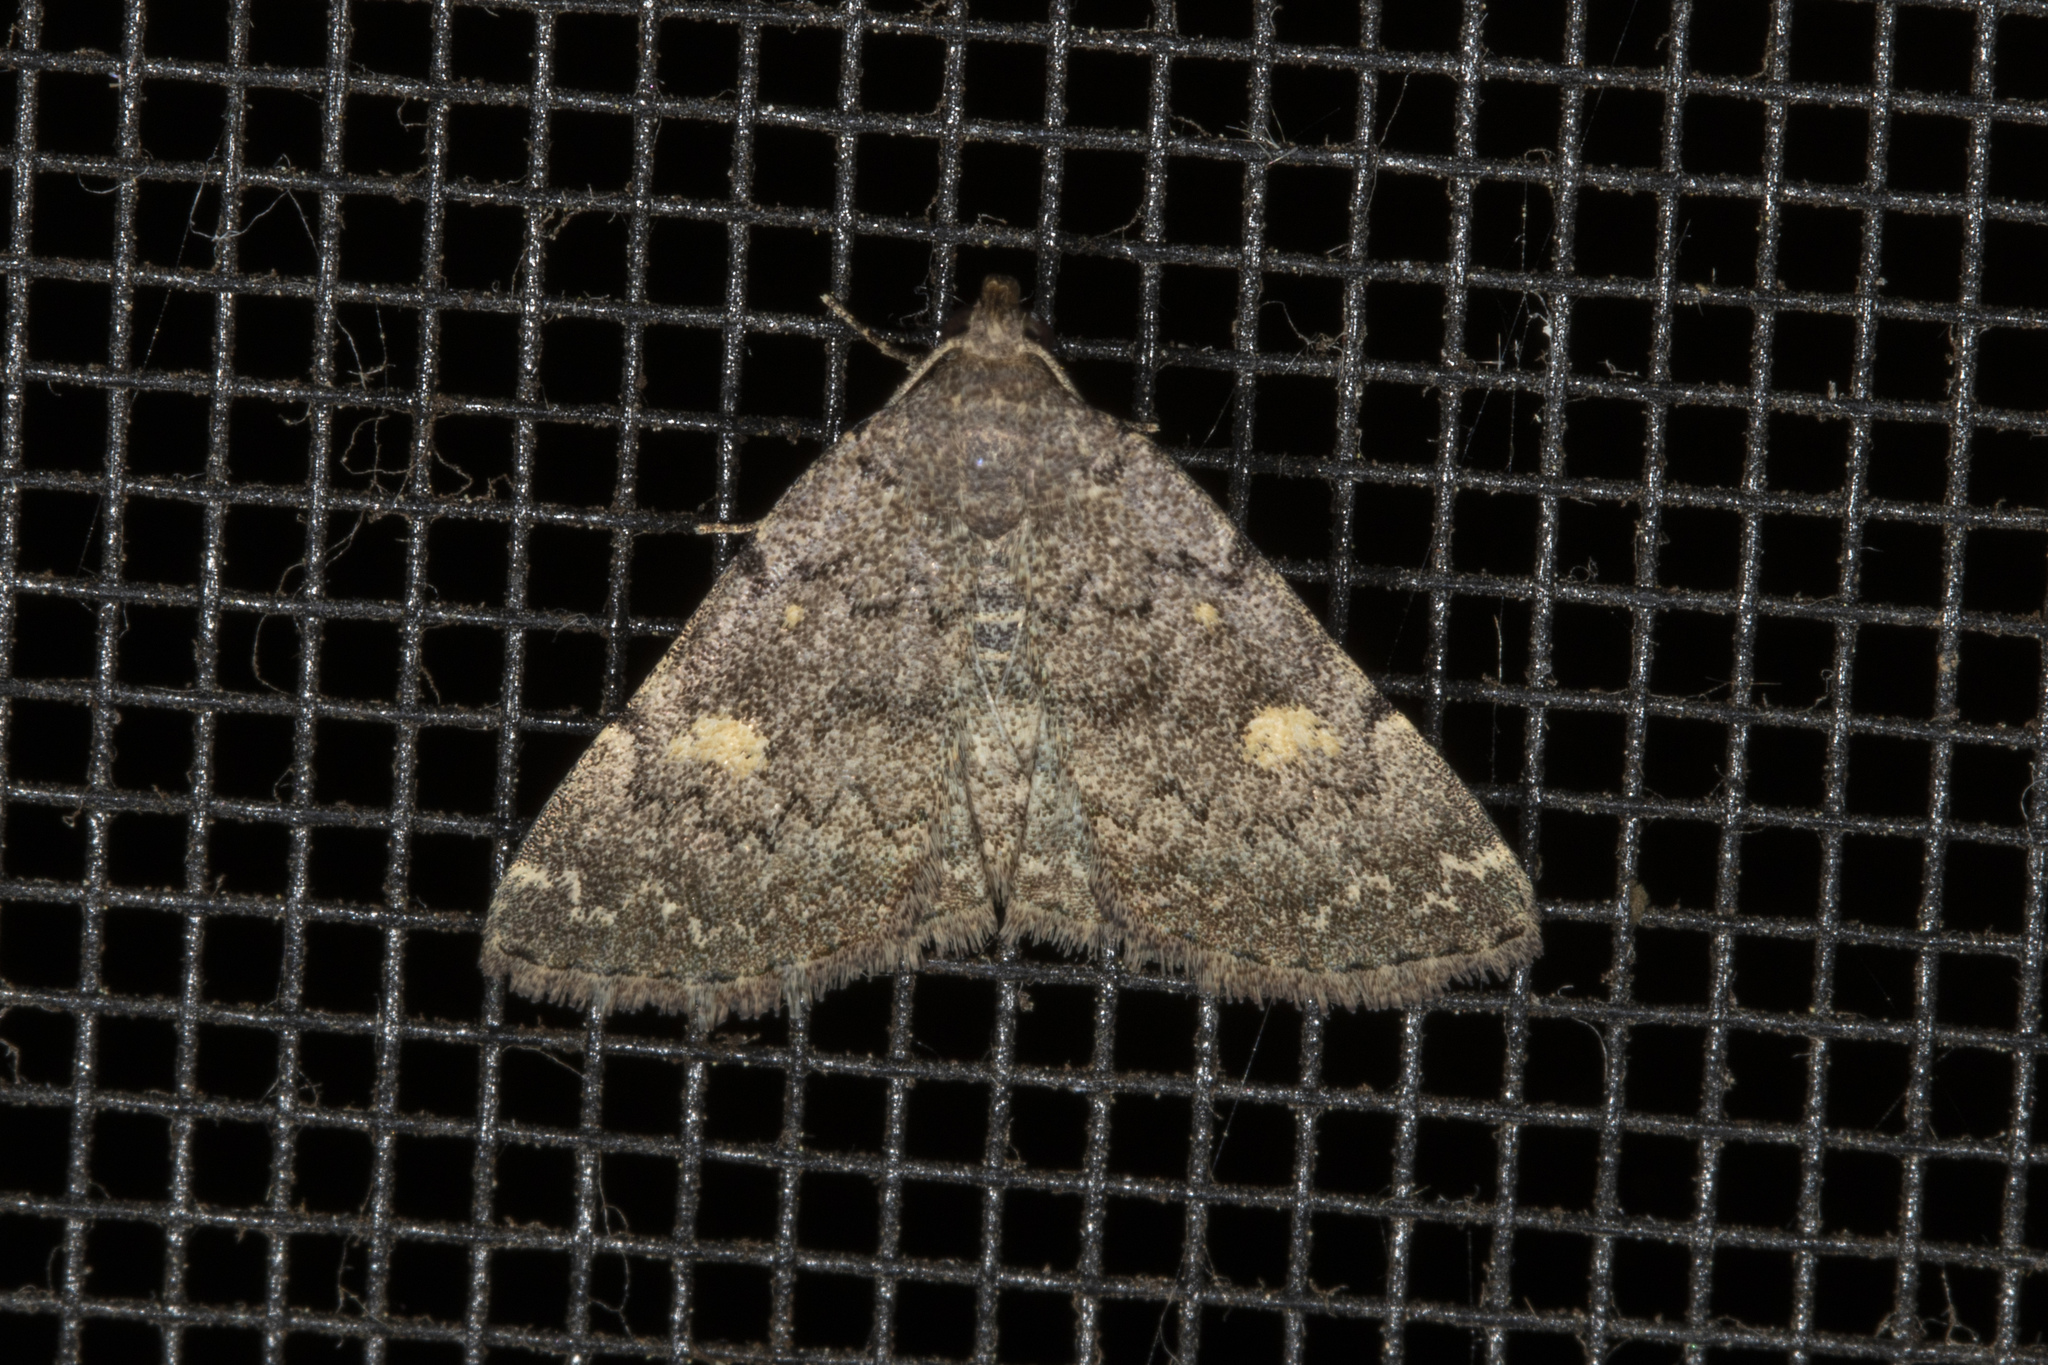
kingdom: Animalia
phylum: Arthropoda
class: Insecta
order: Lepidoptera
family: Erebidae
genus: Idia
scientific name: Idia aemula
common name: Common idia moth
